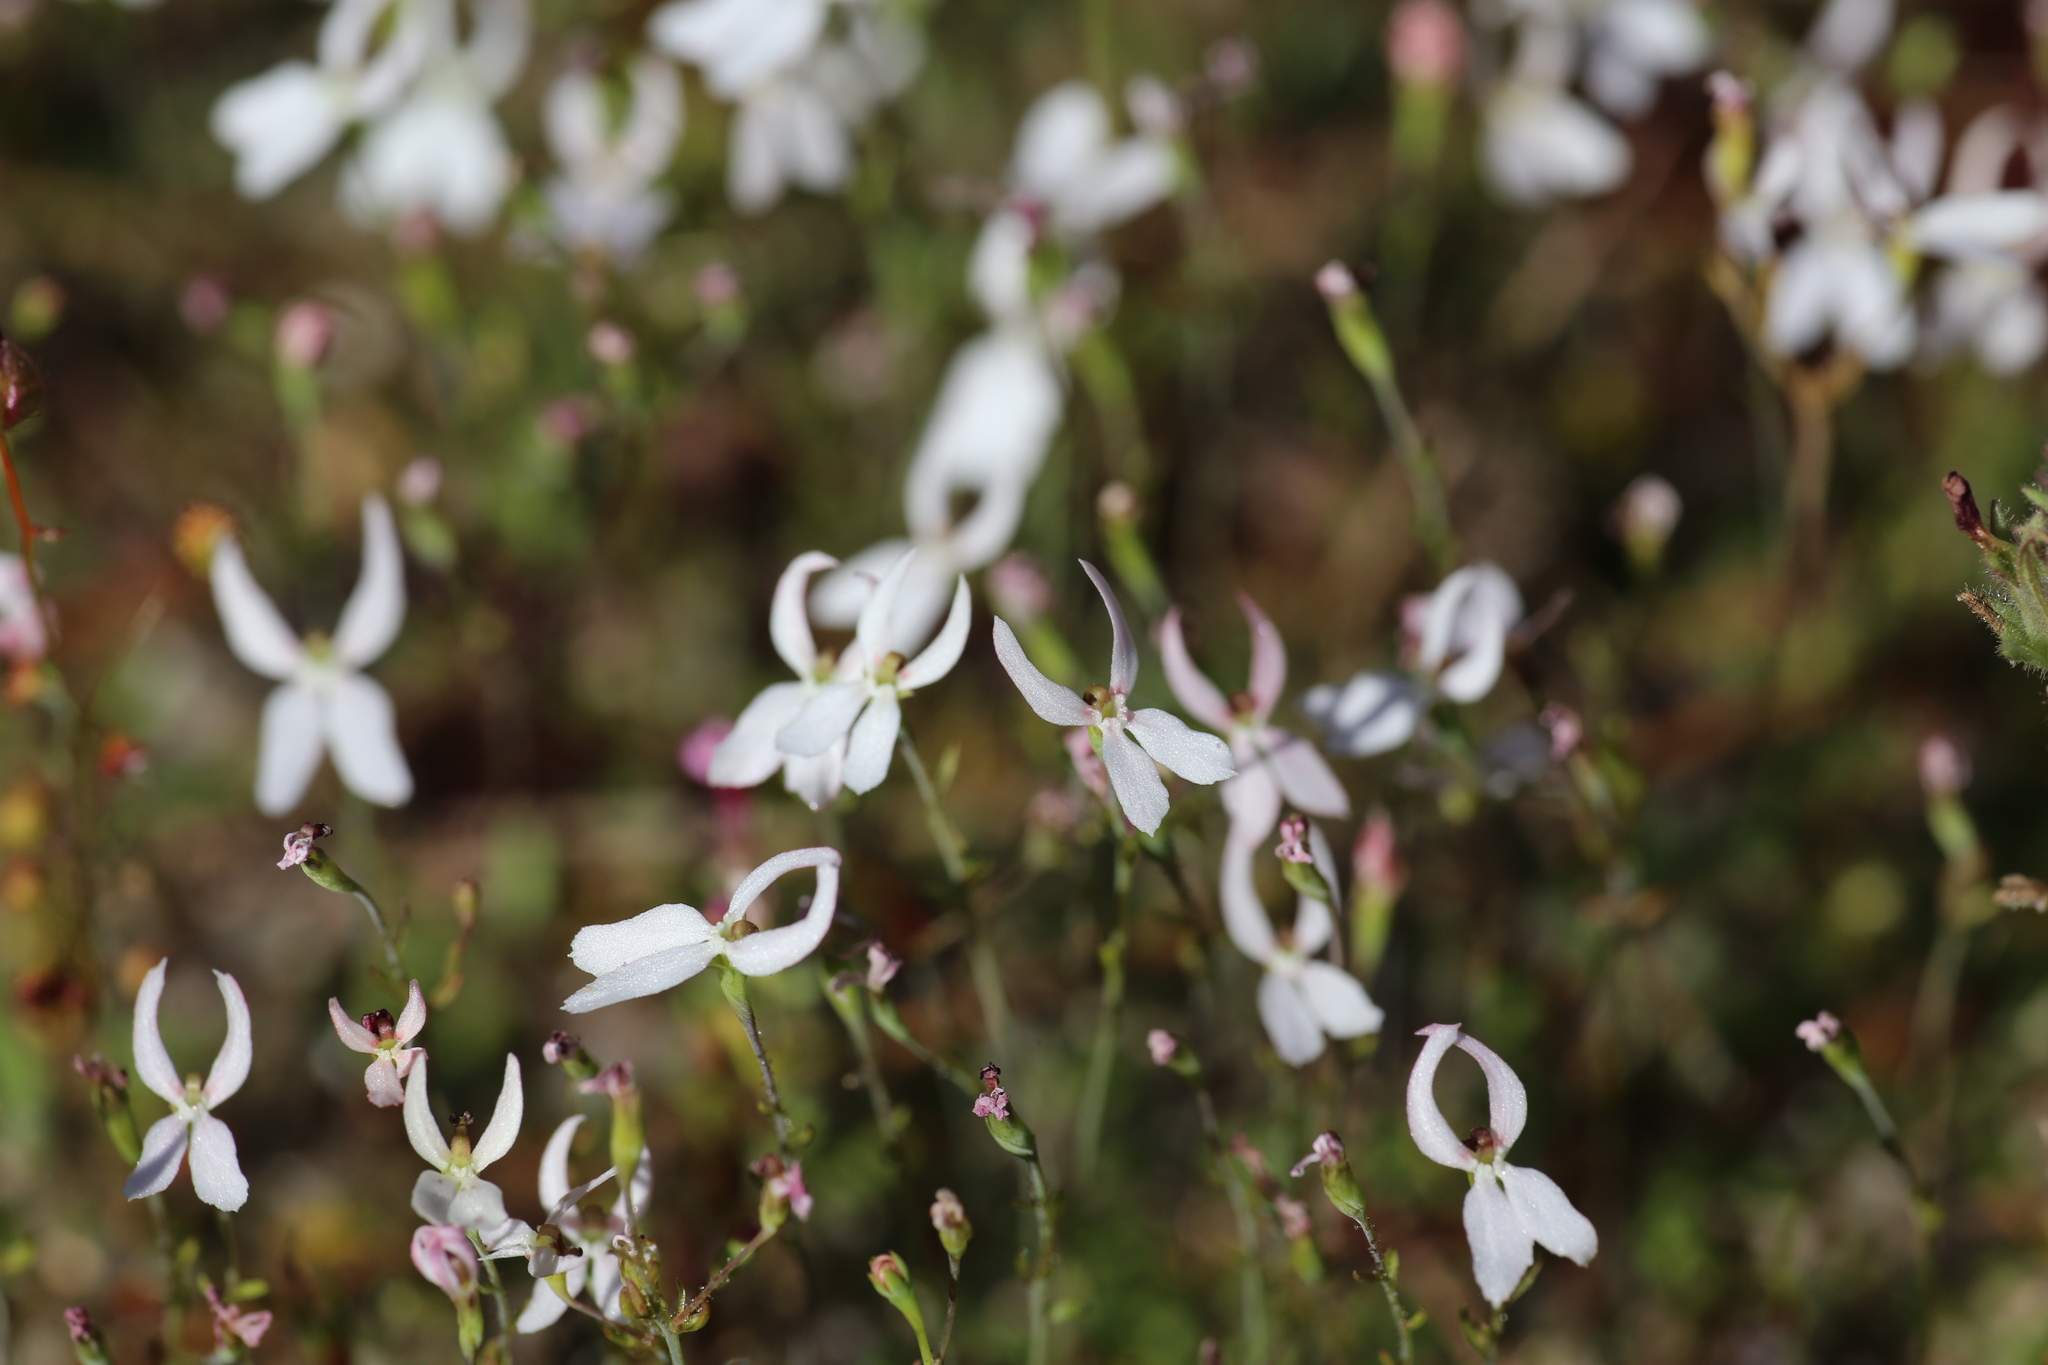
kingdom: Plantae
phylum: Tracheophyta
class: Magnoliopsida
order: Asterales
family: Stylidiaceae
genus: Stylidium
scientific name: Stylidium petiolare
